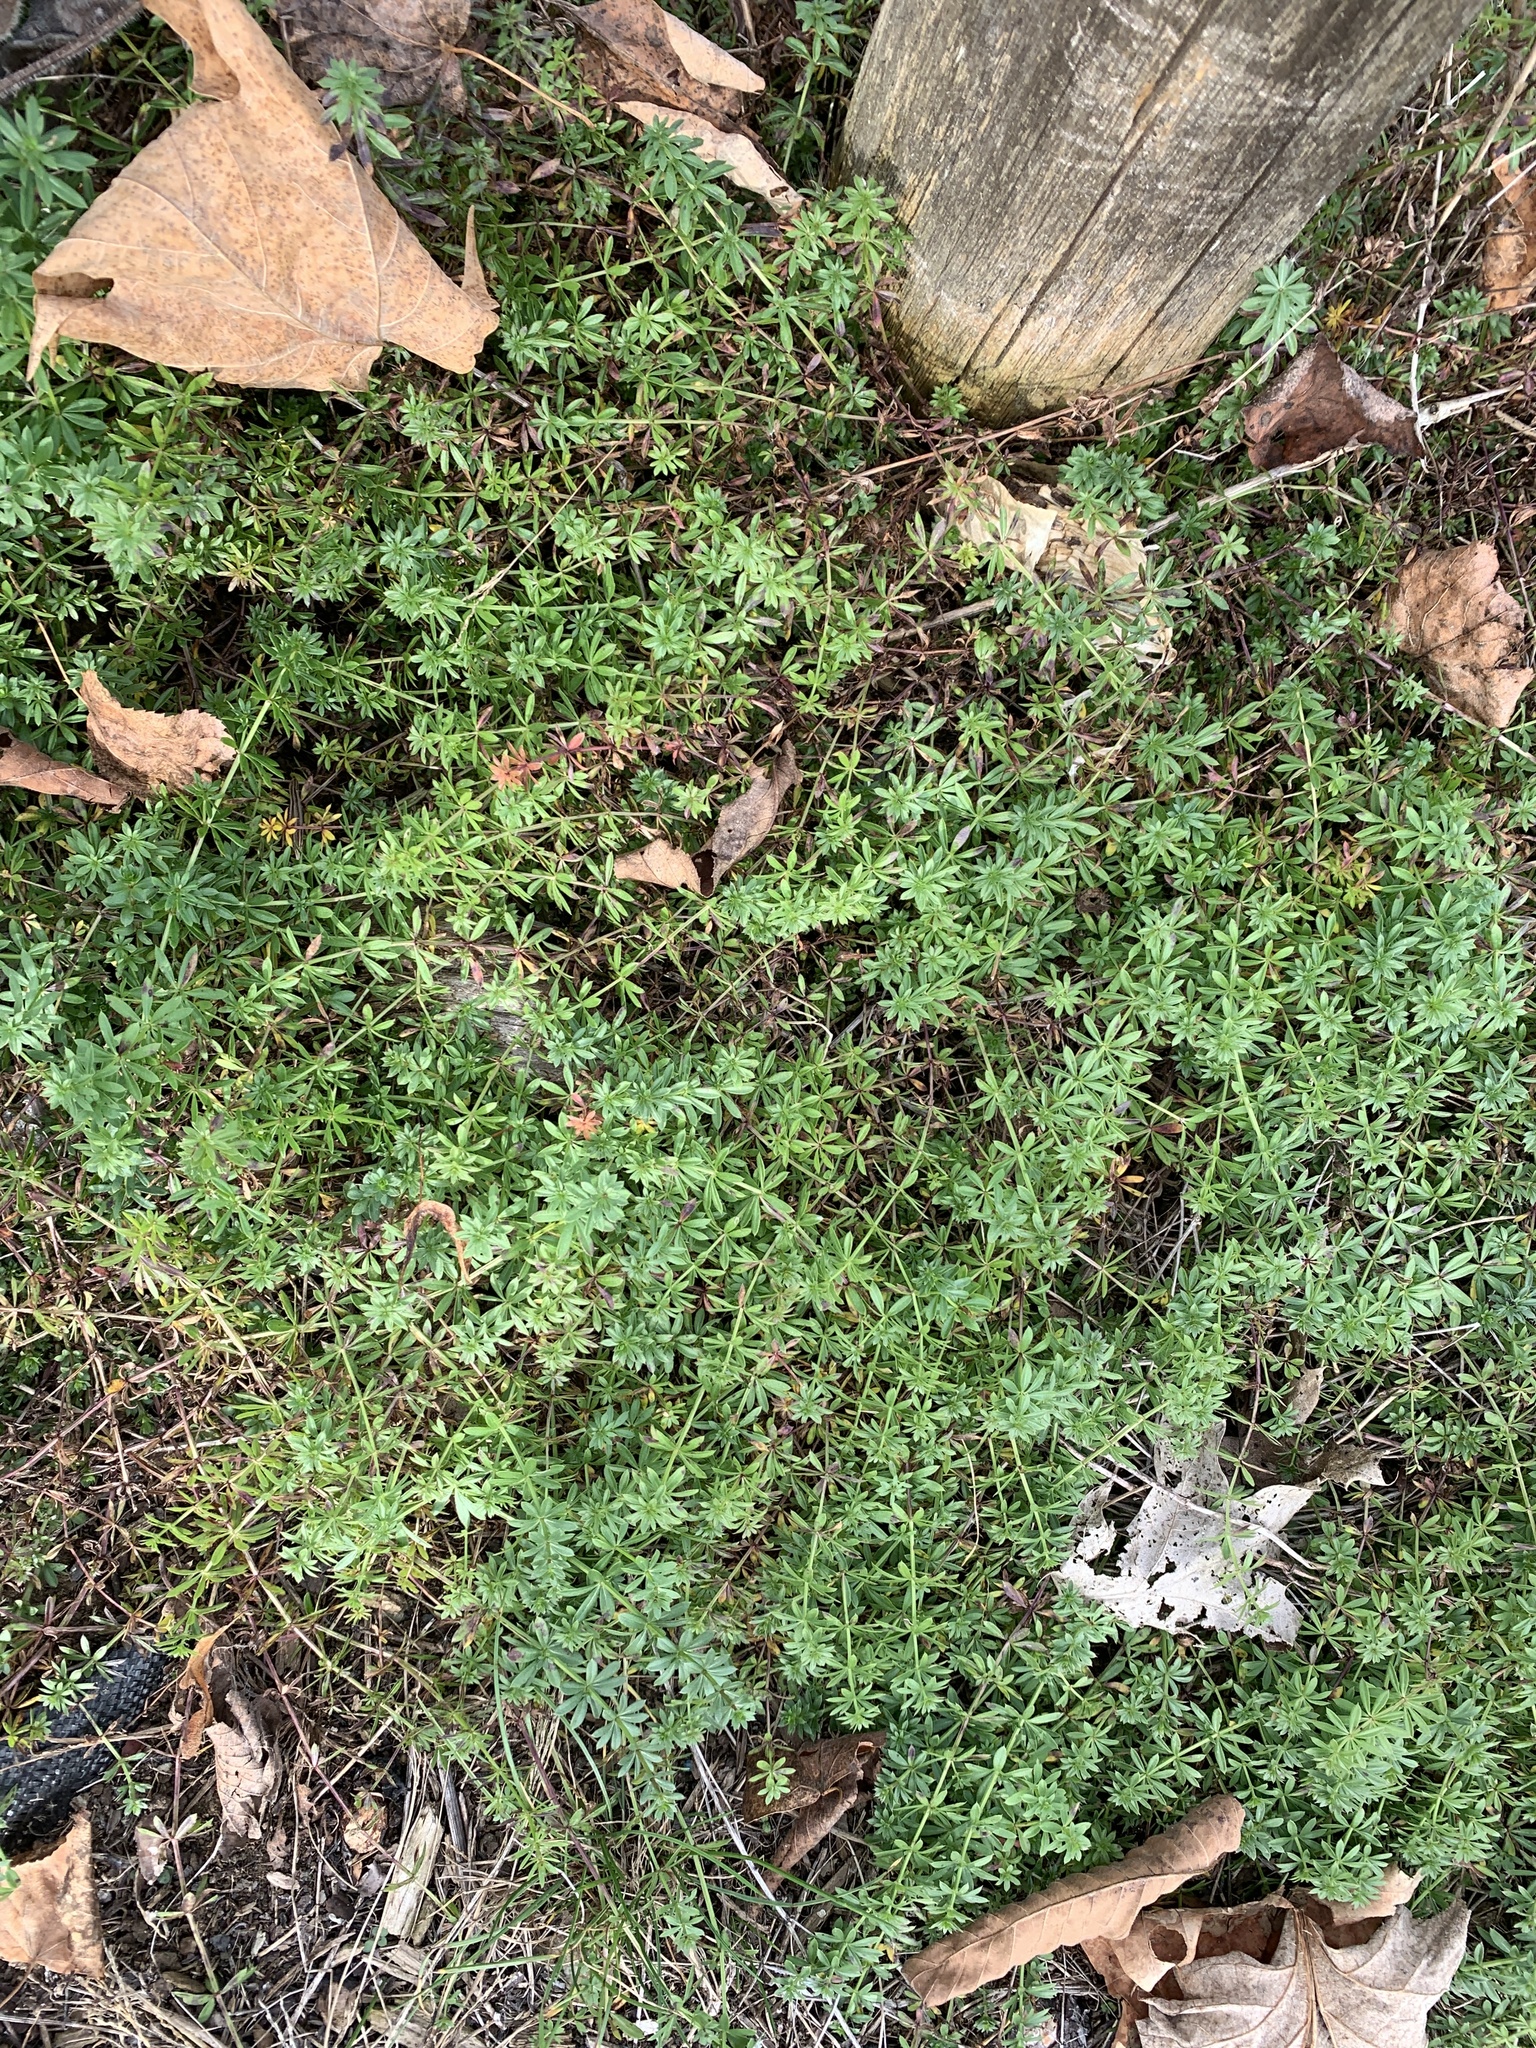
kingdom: Plantae
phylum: Tracheophyta
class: Magnoliopsida
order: Gentianales
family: Rubiaceae
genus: Galium
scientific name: Galium mollugo
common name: Hedge bedstraw
